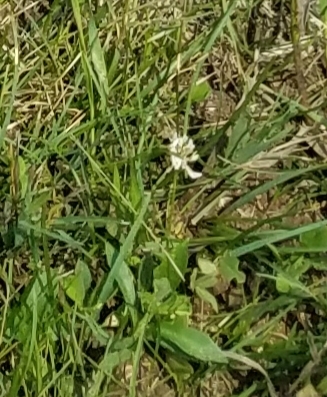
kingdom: Plantae
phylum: Tracheophyta
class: Magnoliopsida
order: Fabales
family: Fabaceae
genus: Trifolium
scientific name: Trifolium repens
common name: White clover
